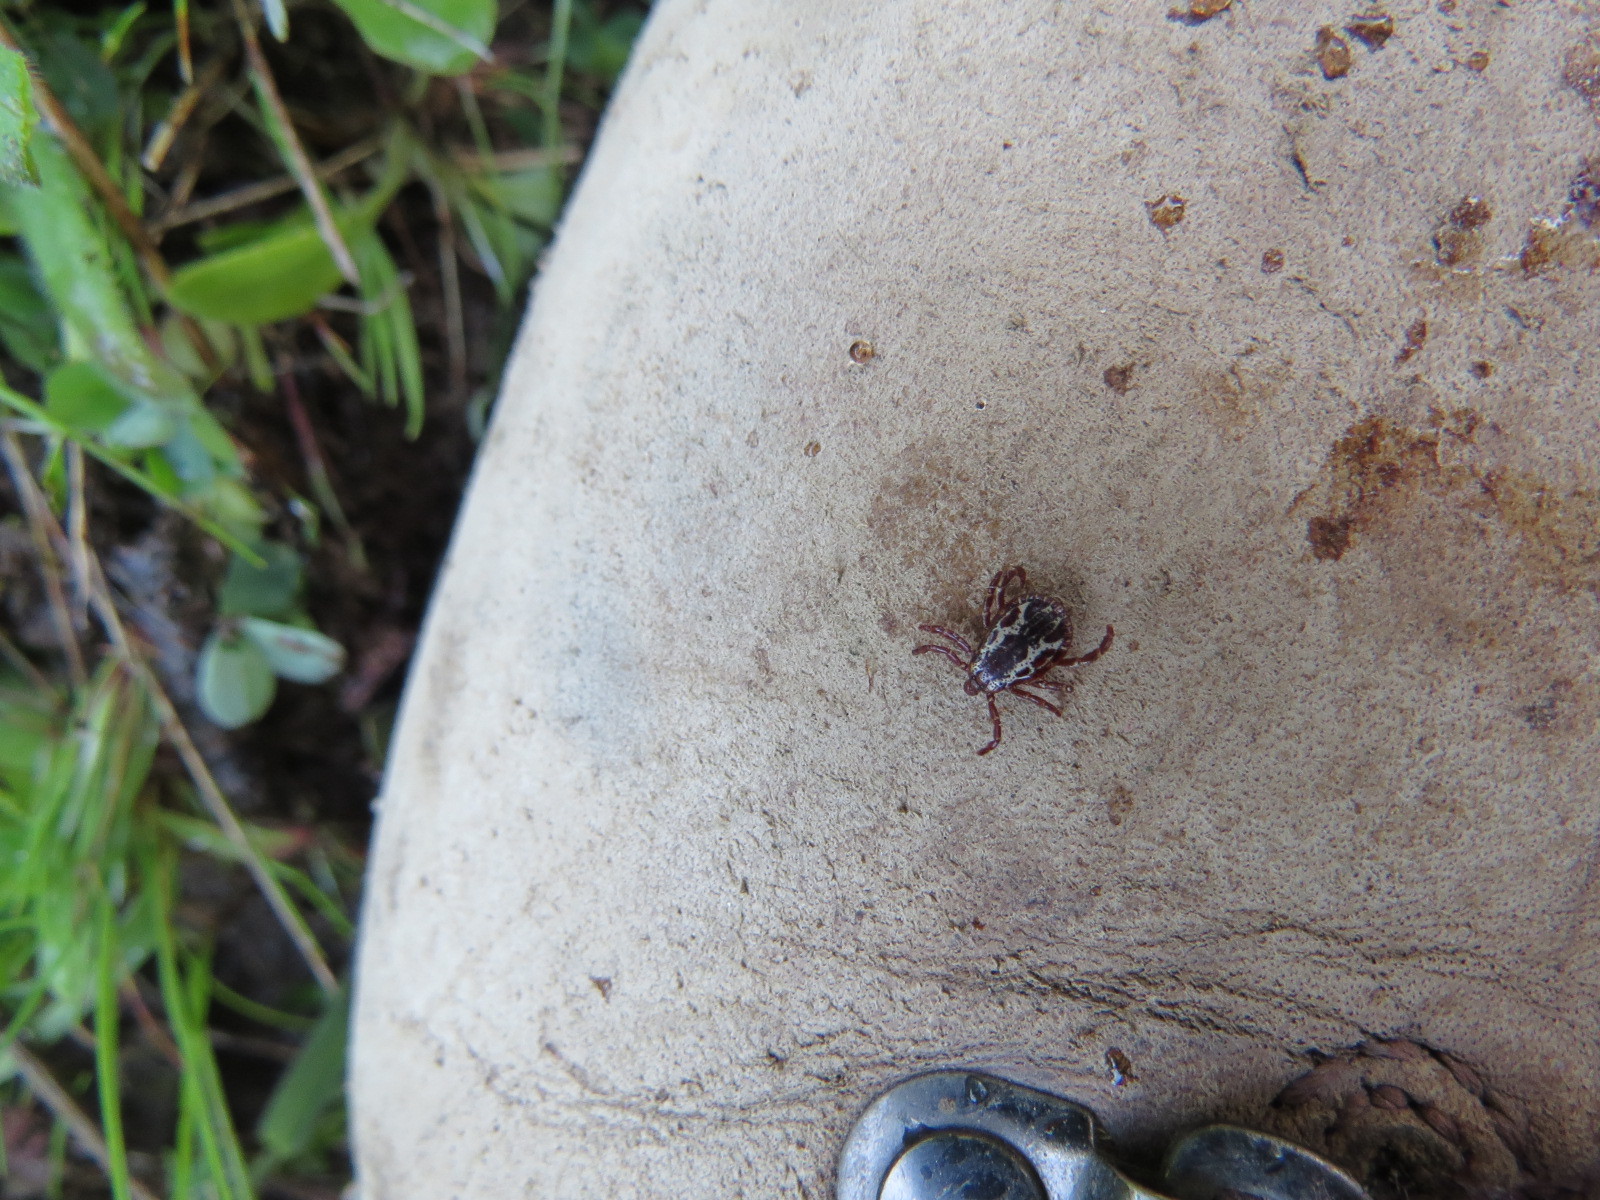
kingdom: Animalia
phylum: Arthropoda
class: Arachnida
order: Ixodida
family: Ixodidae
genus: Dermacentor
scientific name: Dermacentor variabilis
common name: American dog tick
